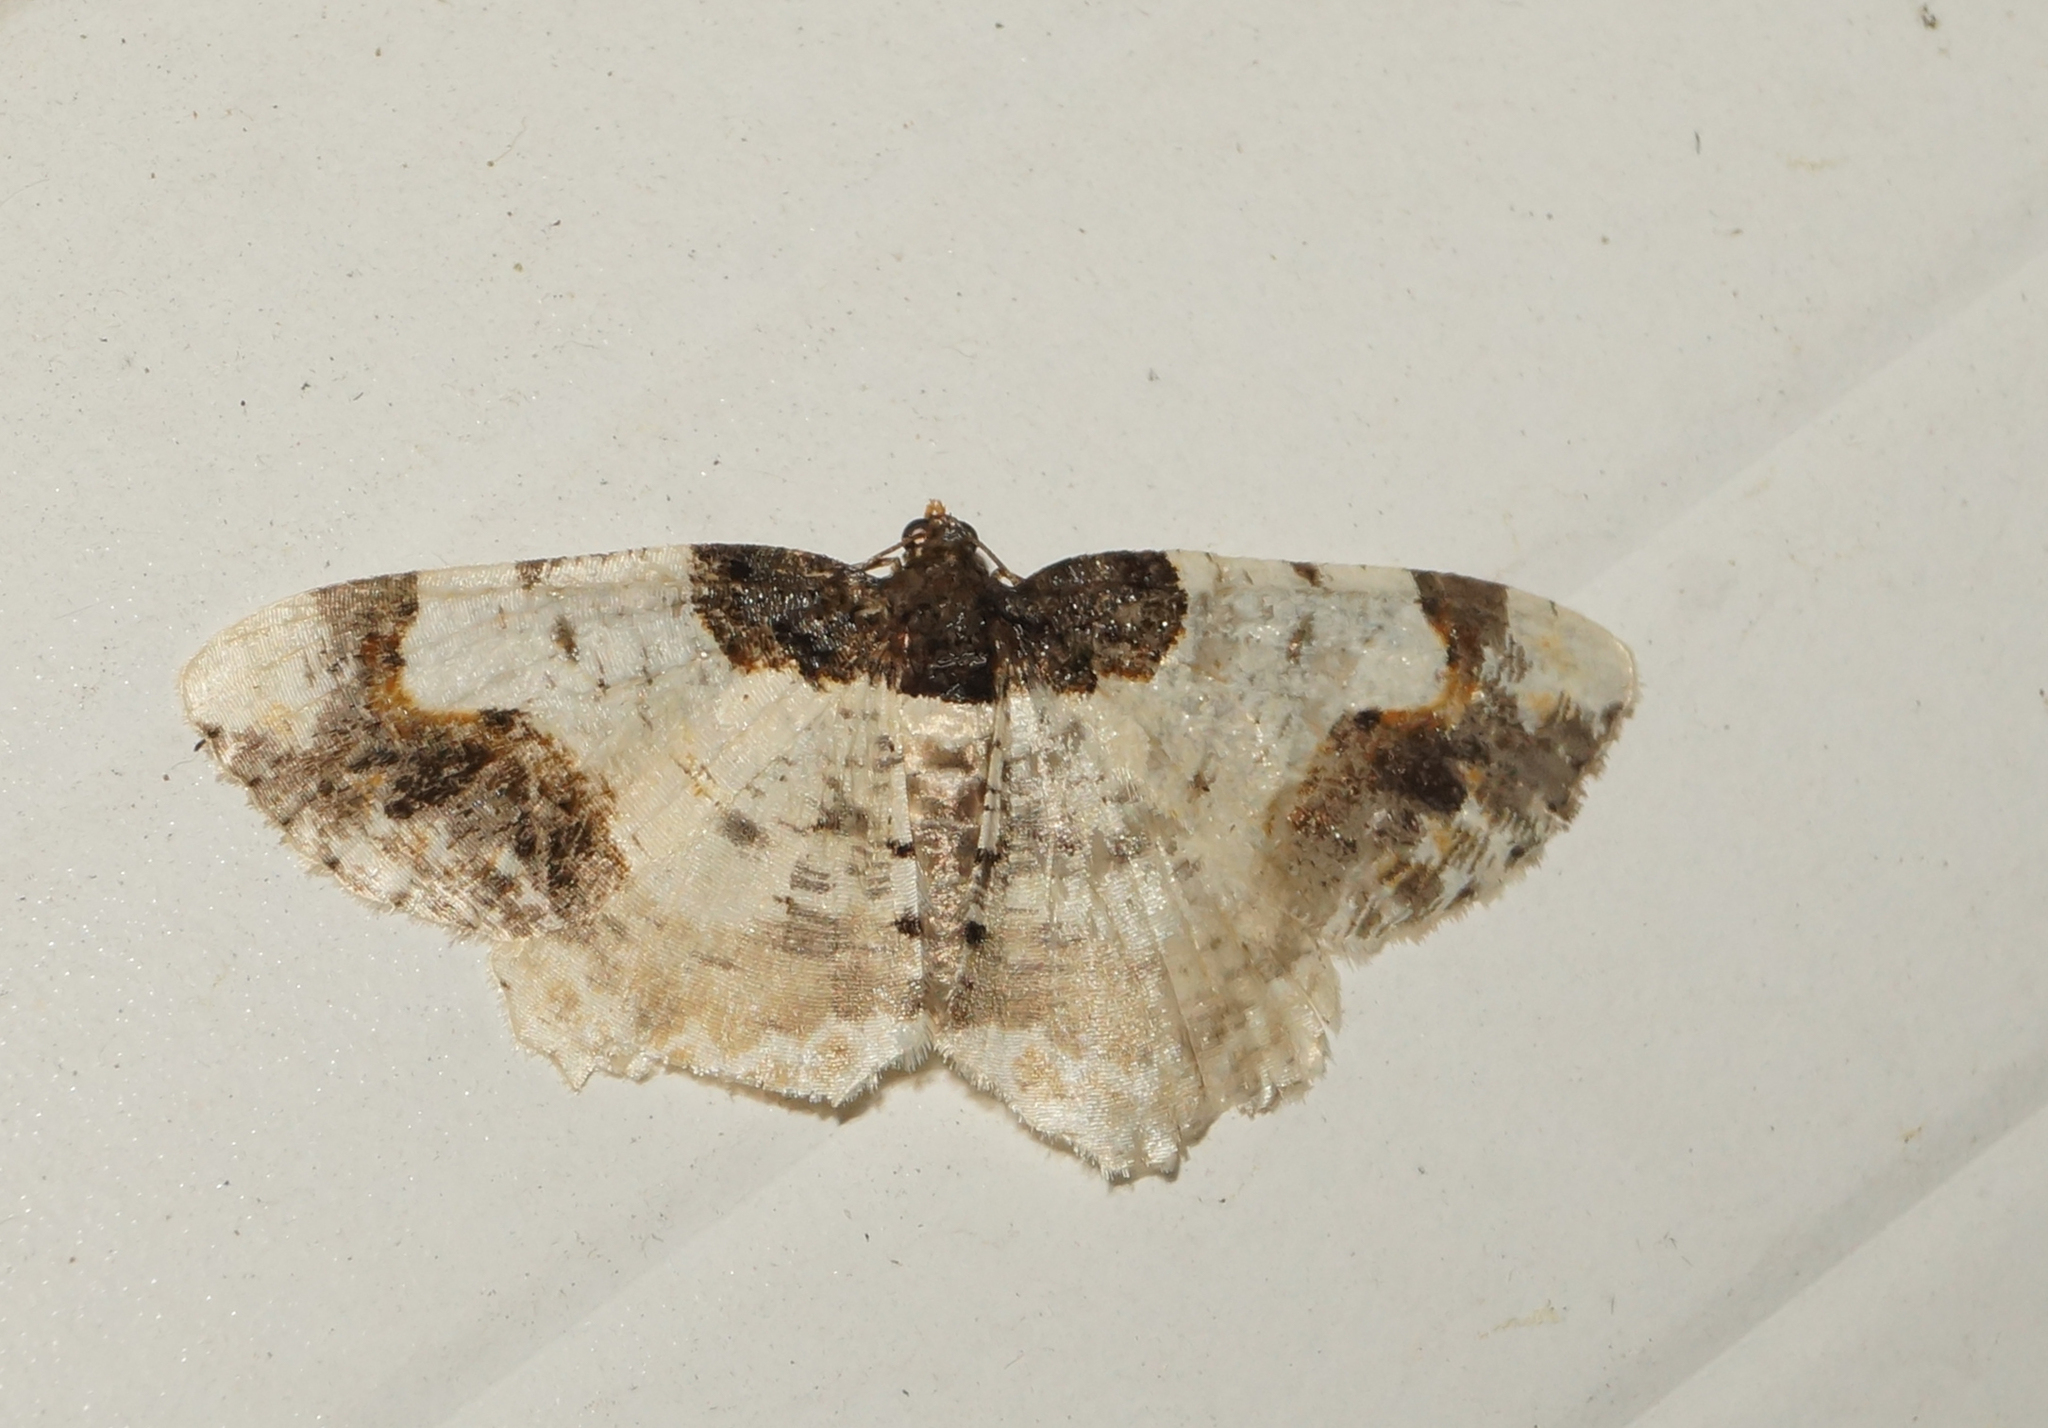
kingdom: Animalia
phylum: Arthropoda
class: Insecta
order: Lepidoptera
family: Geometridae
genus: Ligdia
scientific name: Ligdia adustata
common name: Scorched carpet
